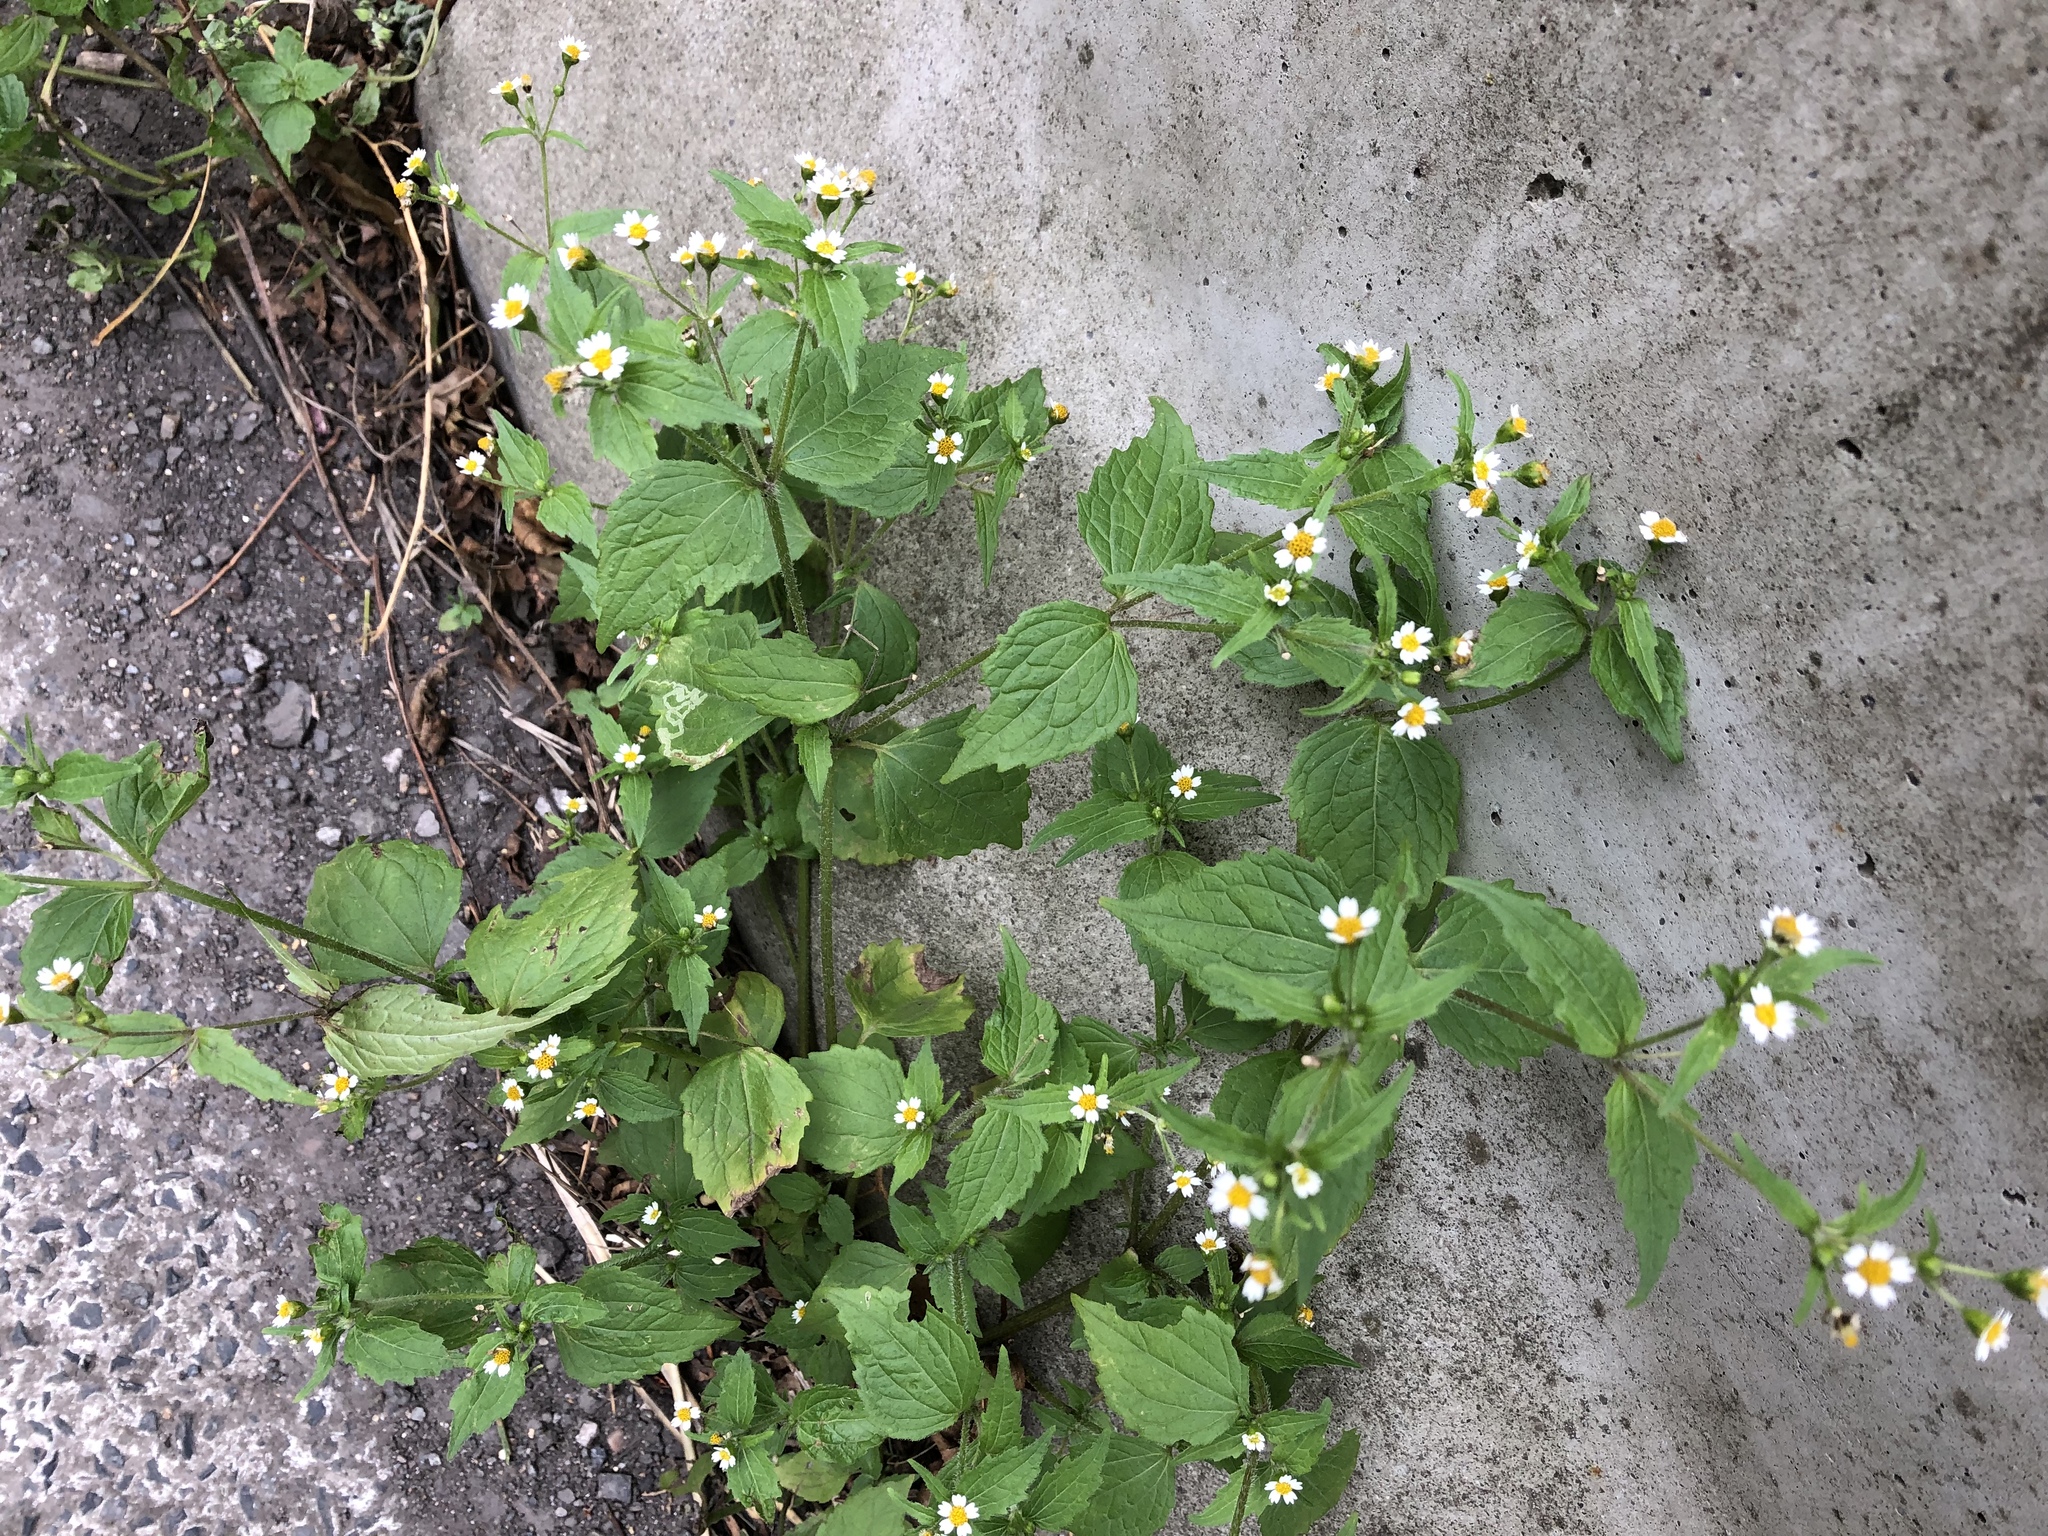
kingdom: Plantae
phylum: Tracheophyta
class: Magnoliopsida
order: Asterales
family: Asteraceae
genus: Galinsoga
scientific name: Galinsoga quadriradiata
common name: Shaggy soldier
